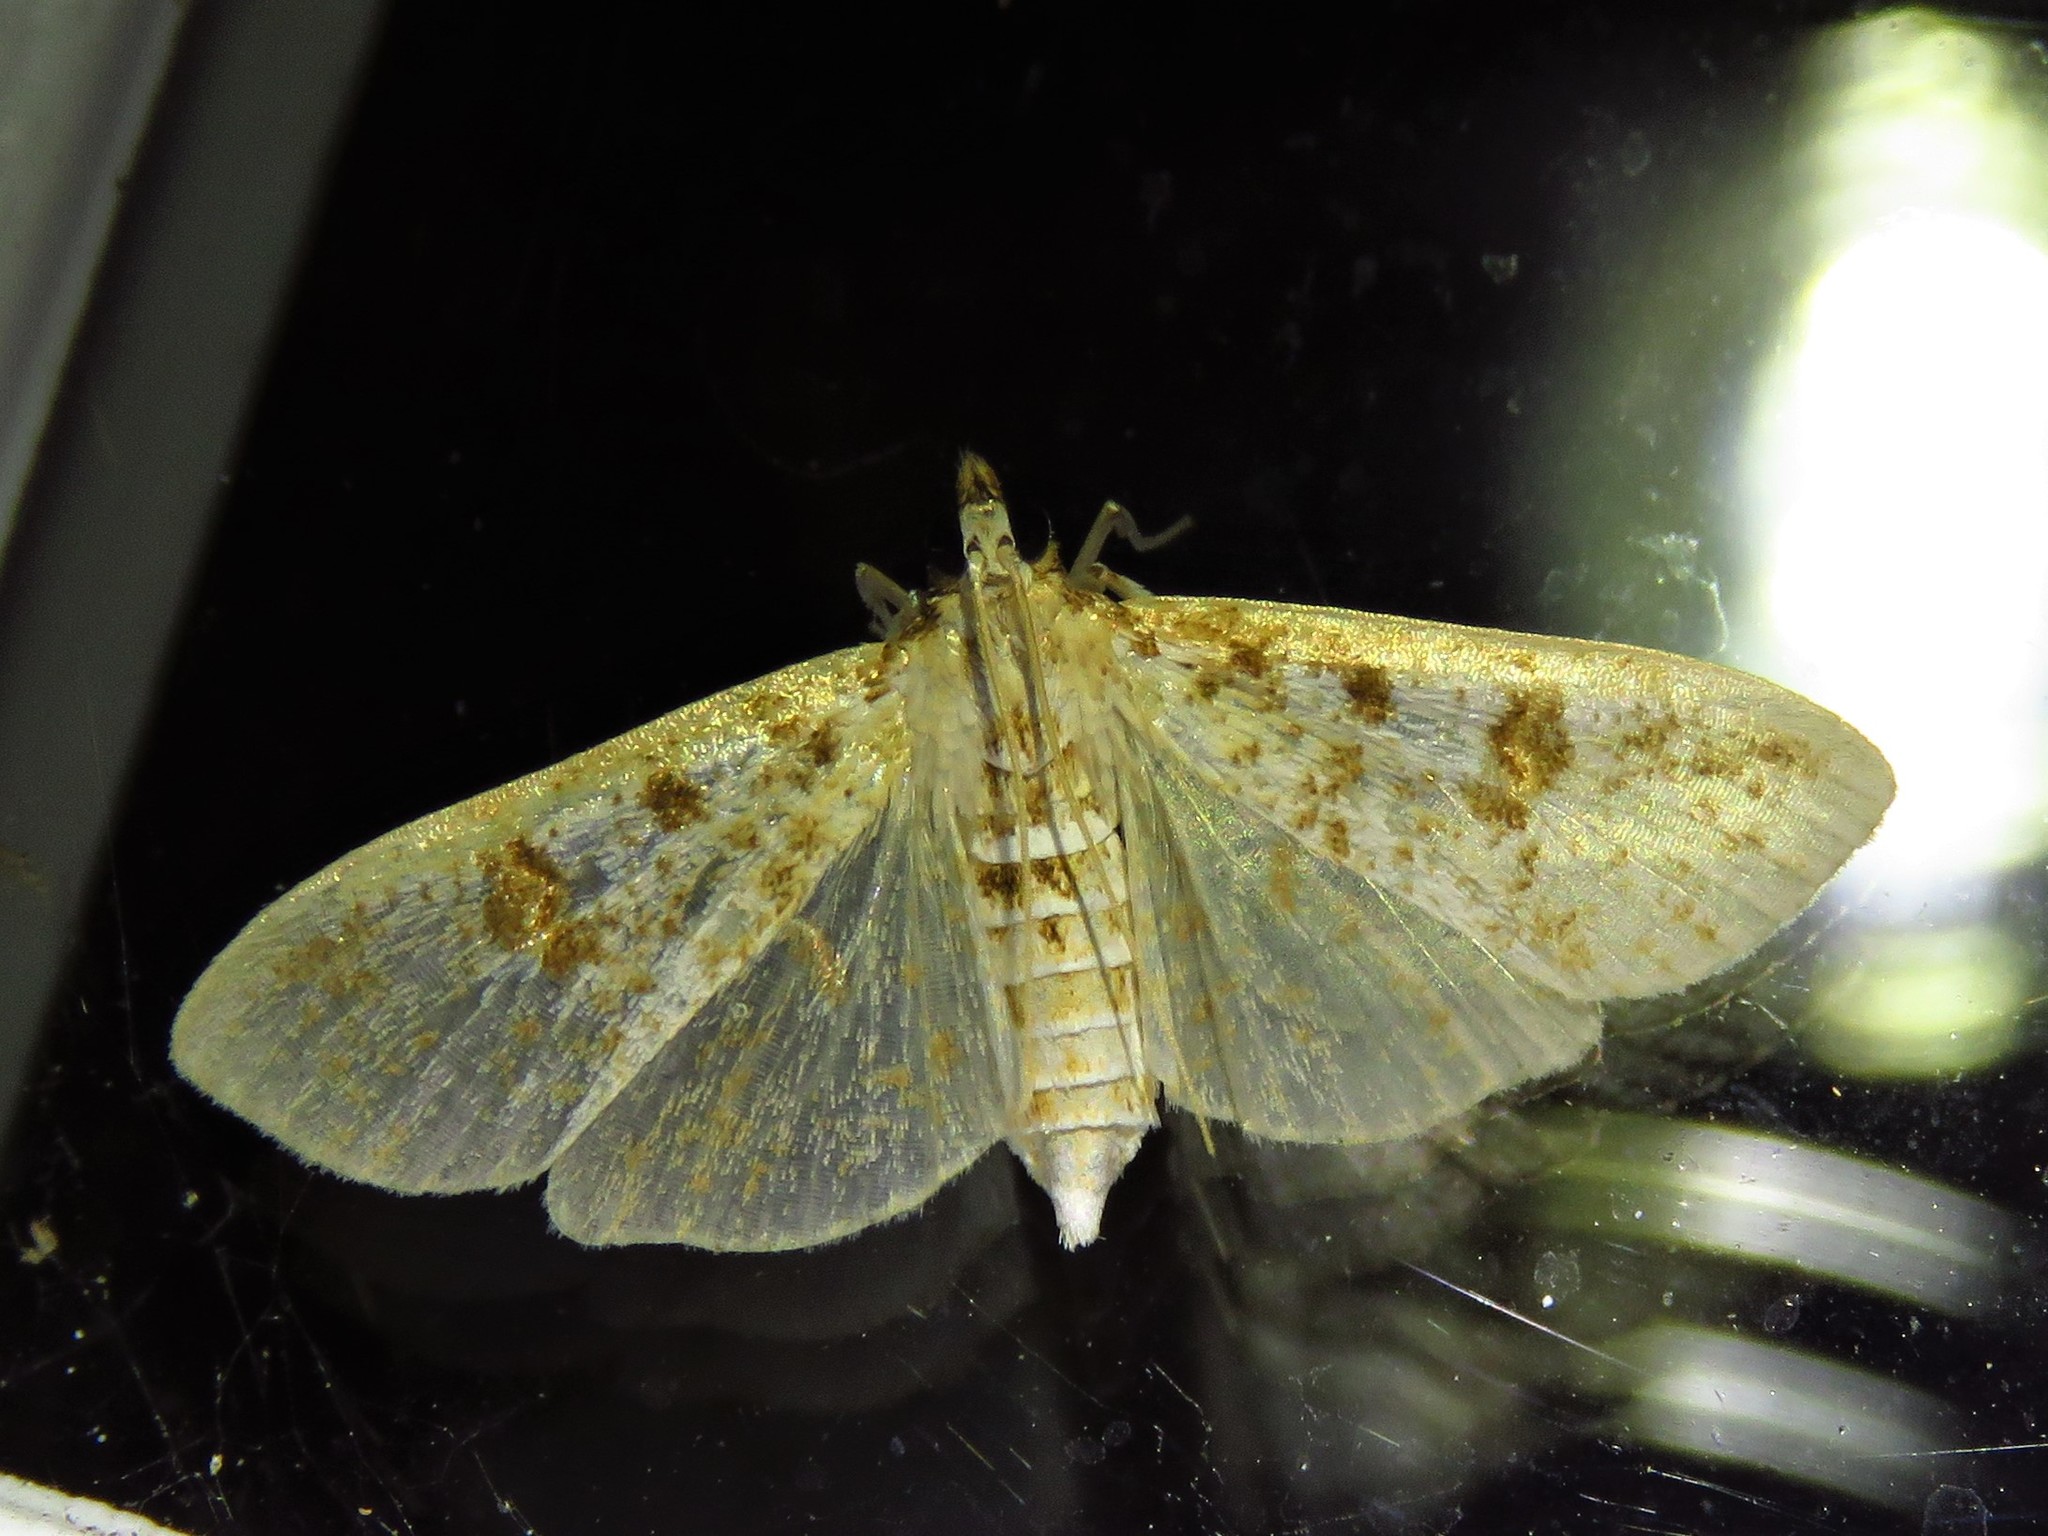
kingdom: Animalia
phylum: Arthropoda
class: Insecta
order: Lepidoptera
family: Crambidae
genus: Palpita
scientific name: Palpita magniferalis
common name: Splendid palpita moth
